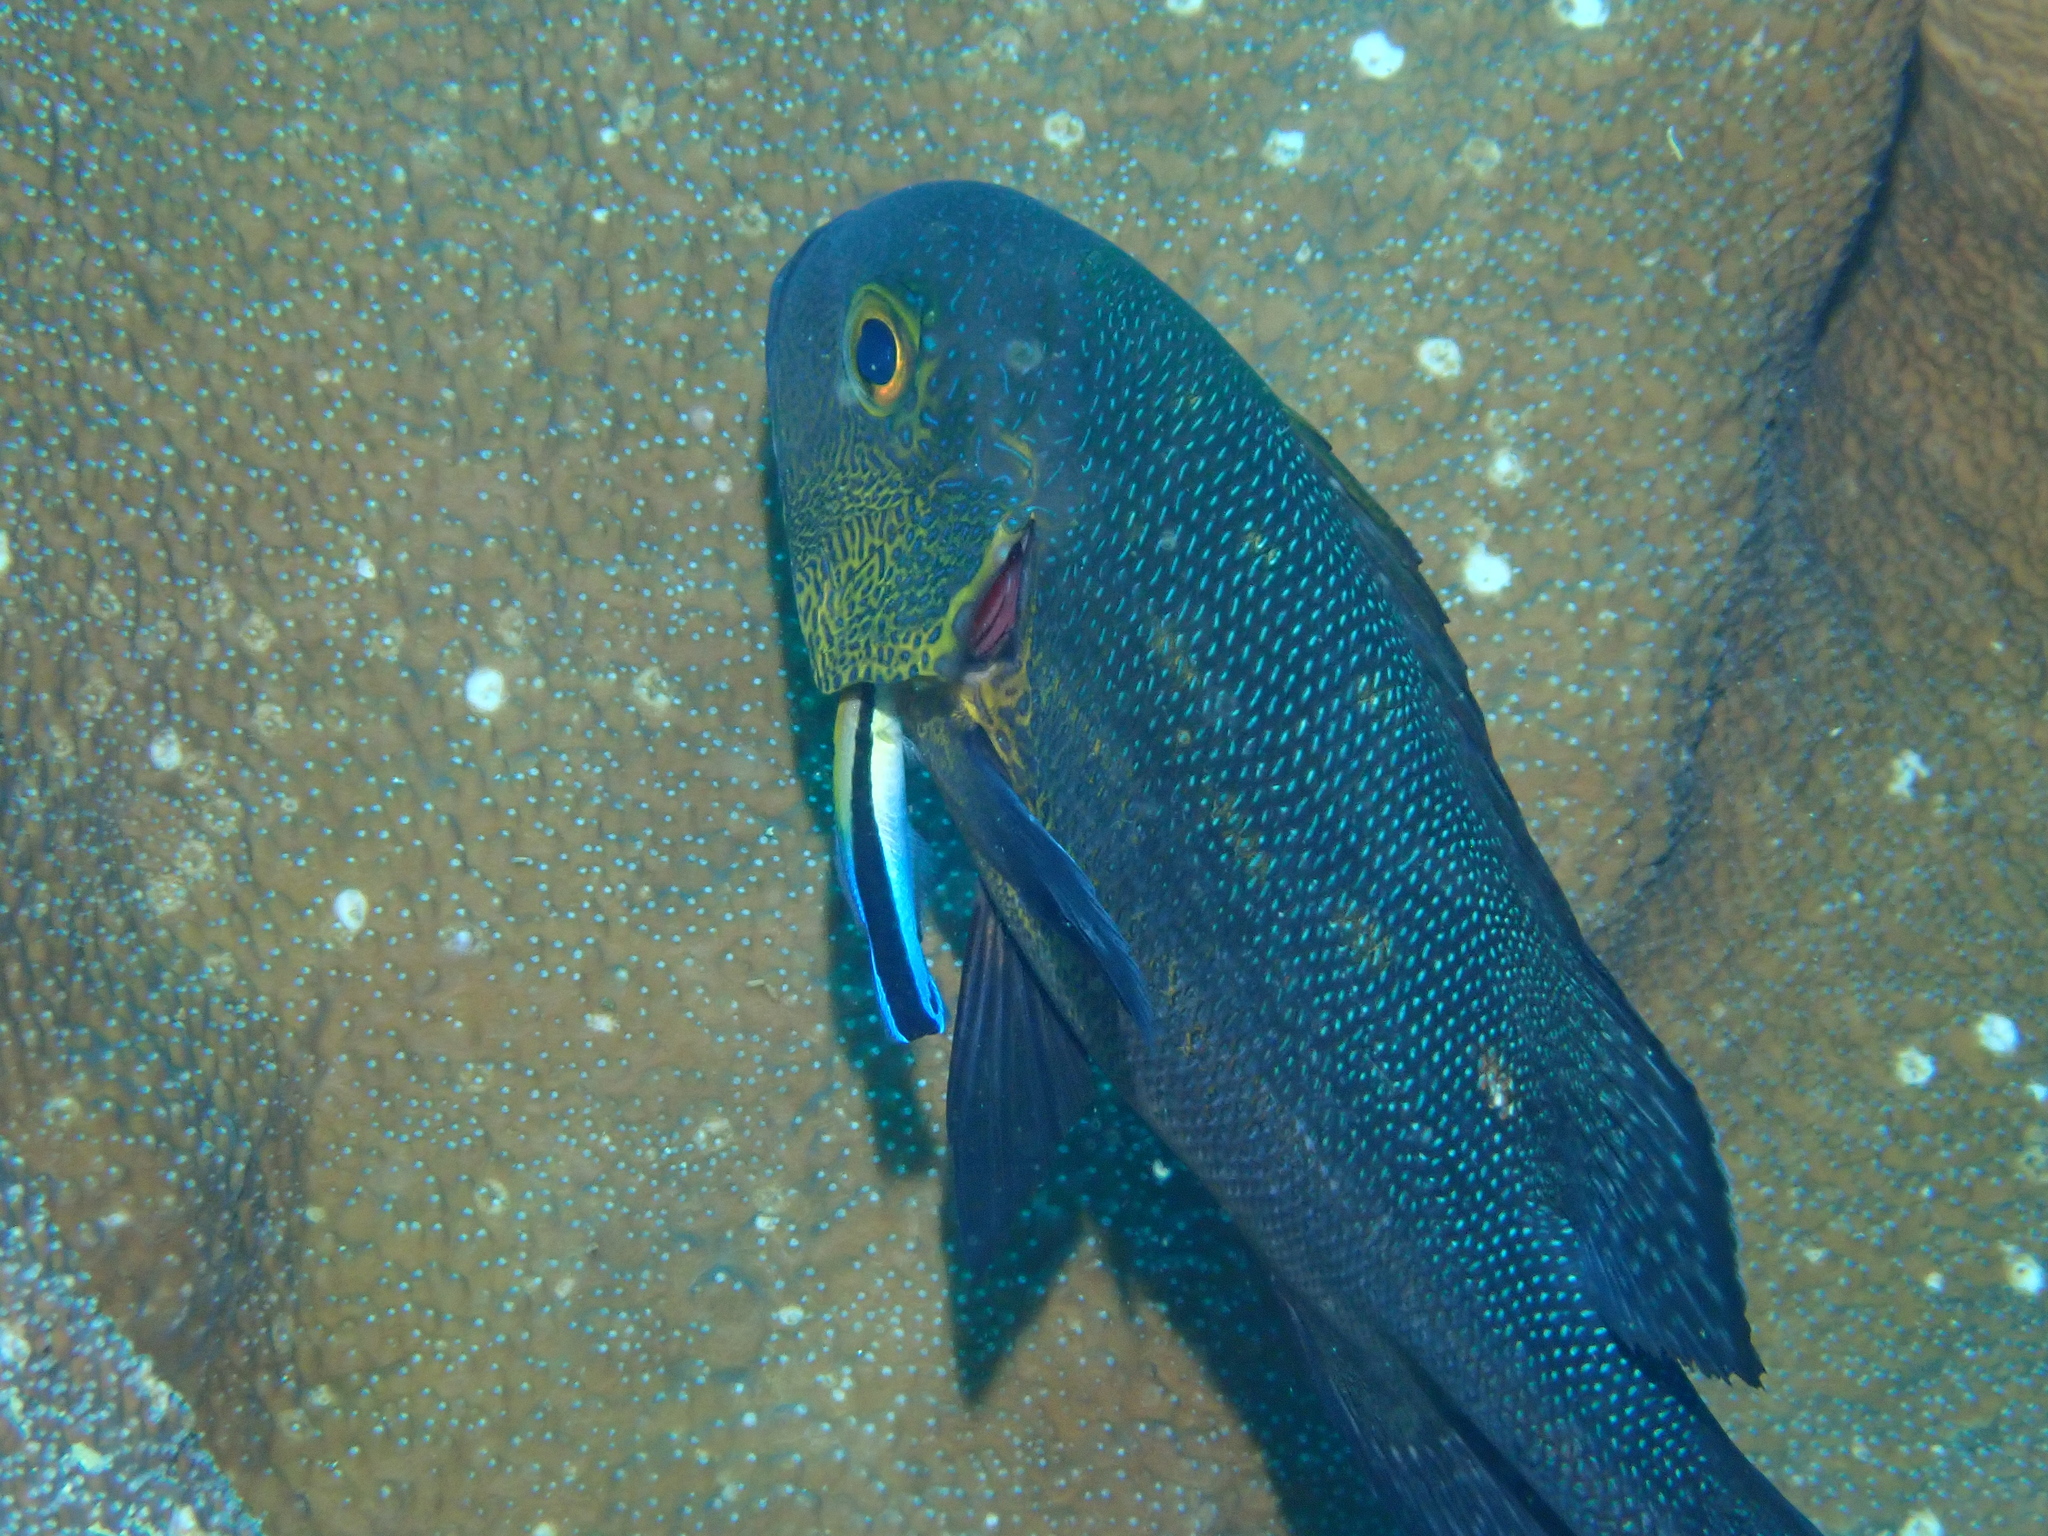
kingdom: Animalia
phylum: Chordata
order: Perciformes
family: Lutjanidae
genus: Macolor
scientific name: Macolor macularis
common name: Midnight snapper
